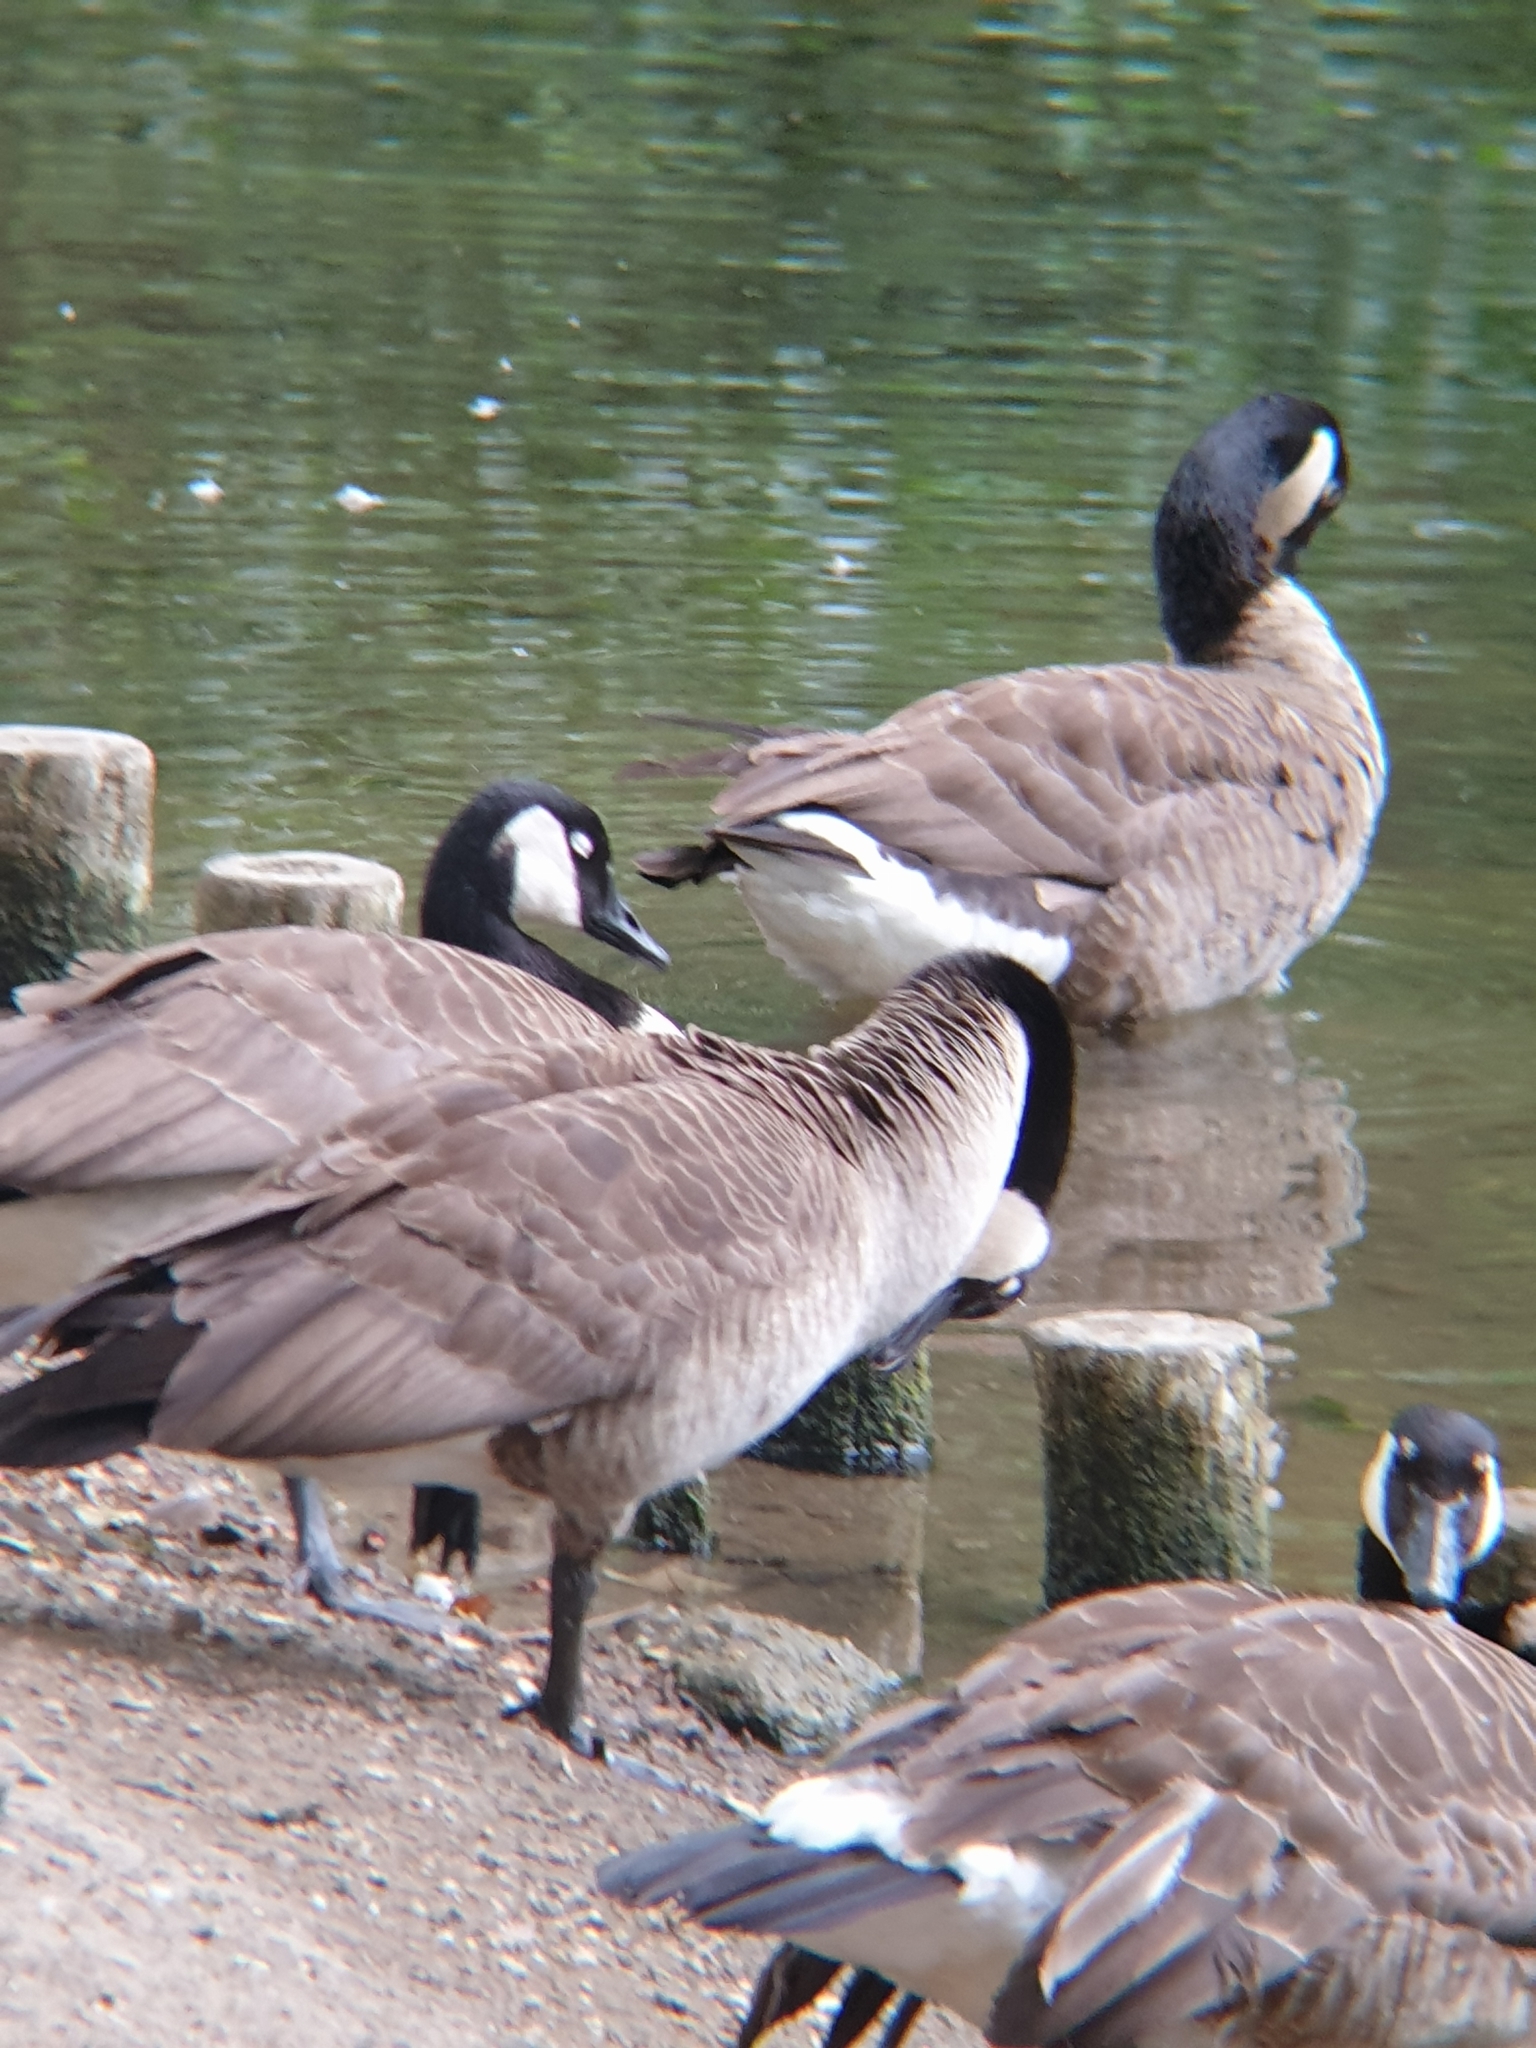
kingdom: Animalia
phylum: Chordata
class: Aves
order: Anseriformes
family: Anatidae
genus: Branta
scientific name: Branta canadensis
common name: Canada goose
